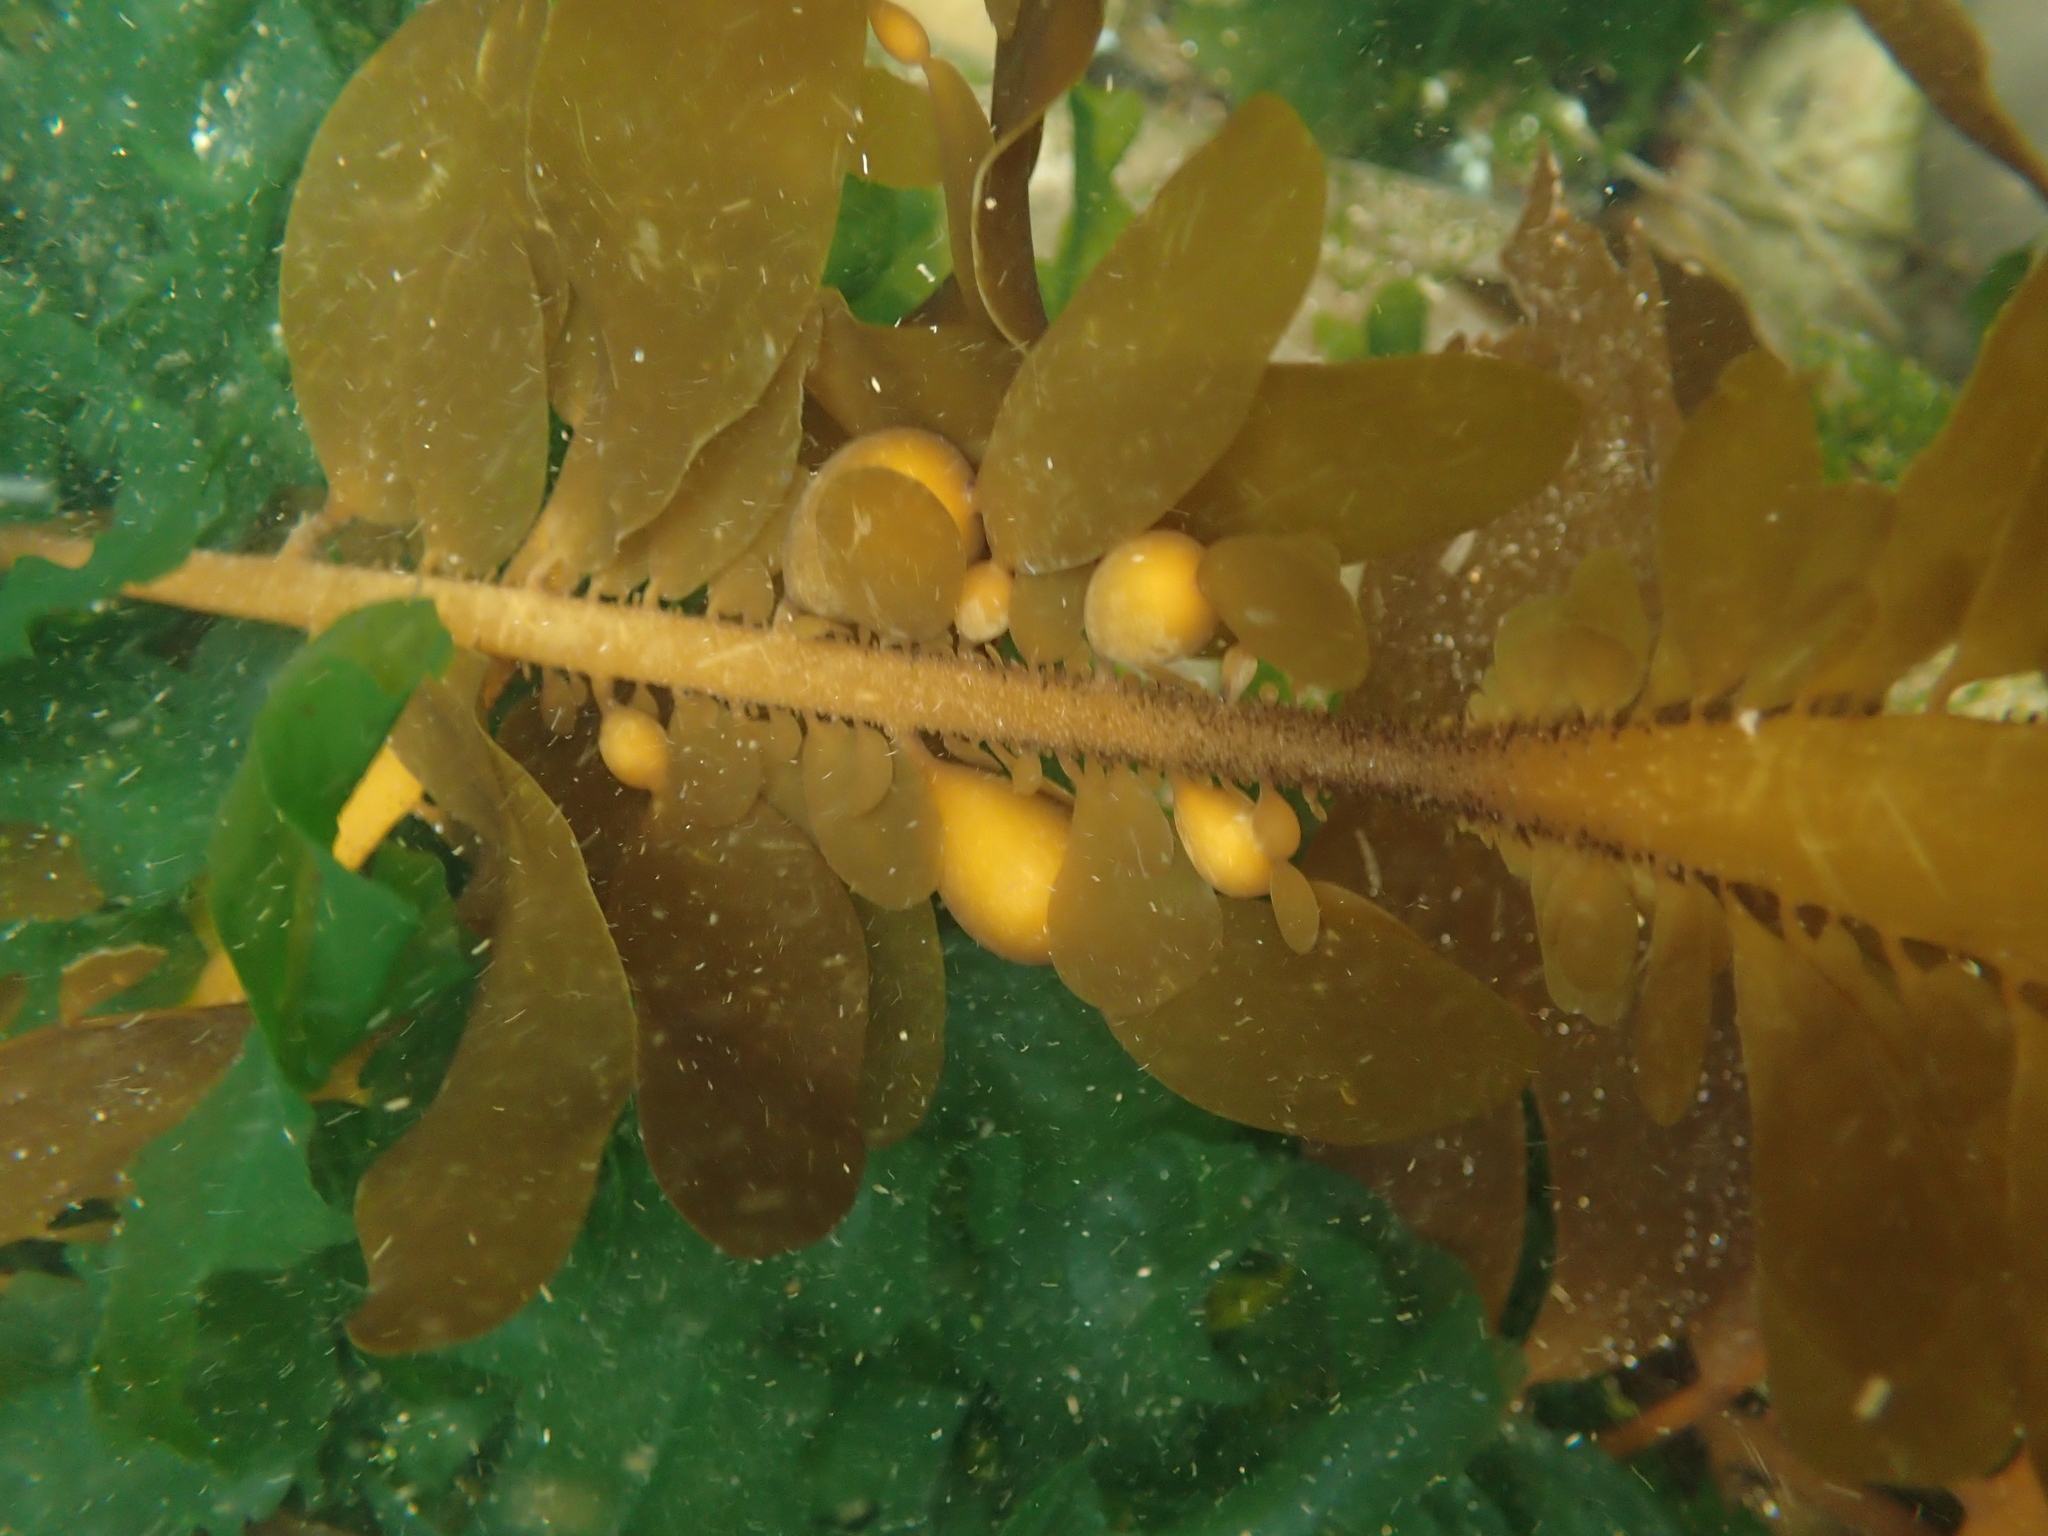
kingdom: Chromista
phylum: Ochrophyta
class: Phaeophyceae
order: Laminariales
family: Lessoniaceae
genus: Egregia
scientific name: Egregia menziesii
